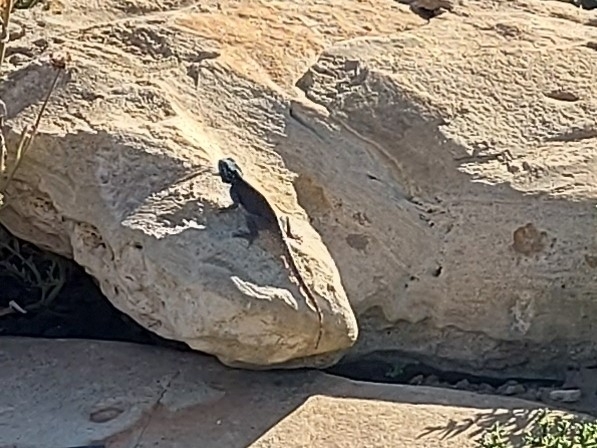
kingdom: Animalia
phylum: Chordata
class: Squamata
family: Agamidae
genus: Agama
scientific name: Agama atra
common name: Southern african rock agama
